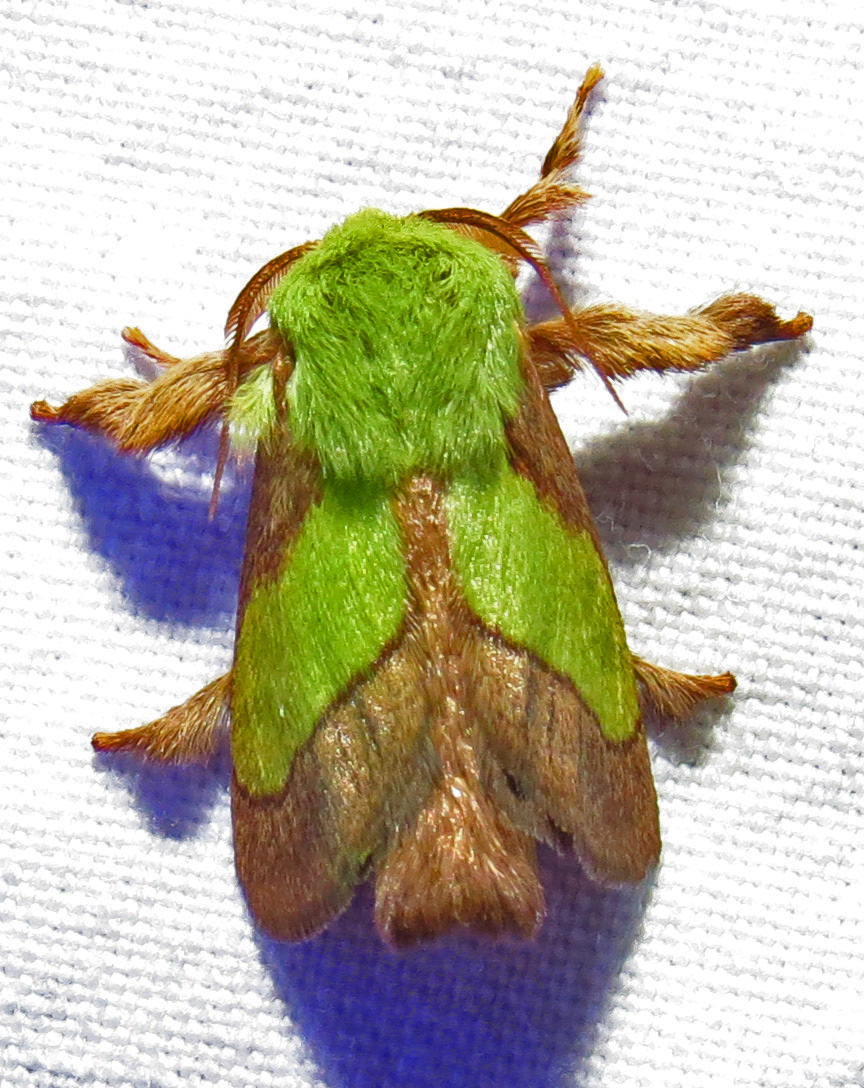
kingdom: Animalia
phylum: Arthropoda
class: Insecta
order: Lepidoptera
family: Limacodidae
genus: Parasa
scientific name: Parasa chloris
